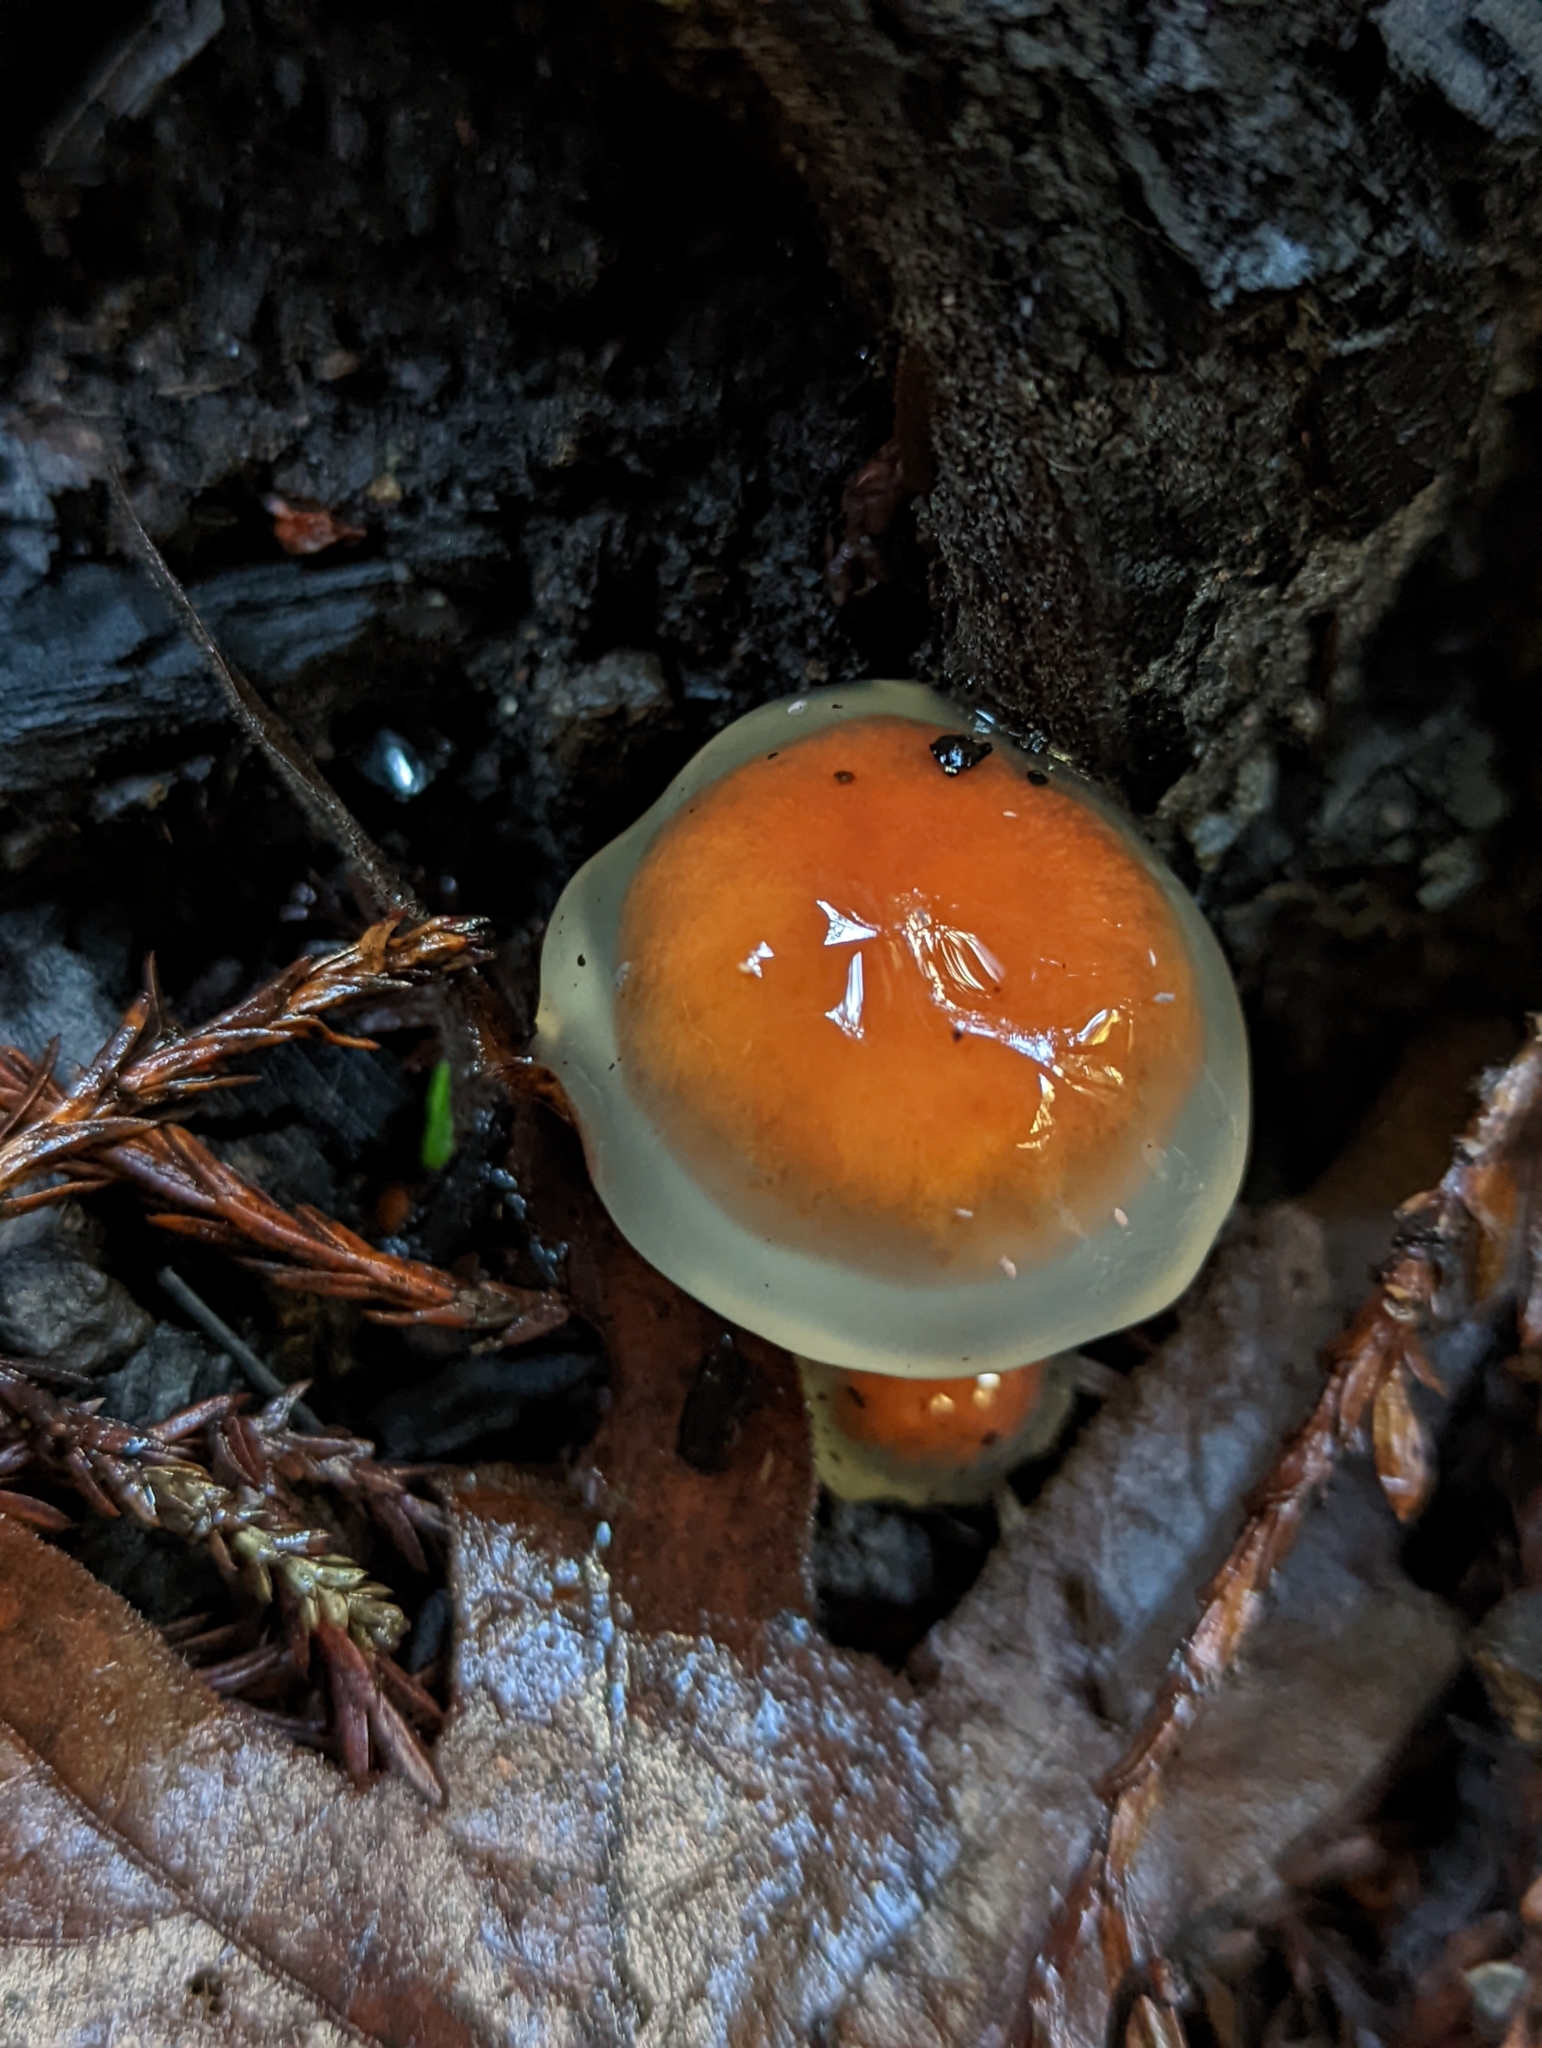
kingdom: Fungi
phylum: Basidiomycota
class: Agaricomycetes
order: Agaricales
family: Strophariaceae
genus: Pholiota
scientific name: Pholiota velaglutinosa
